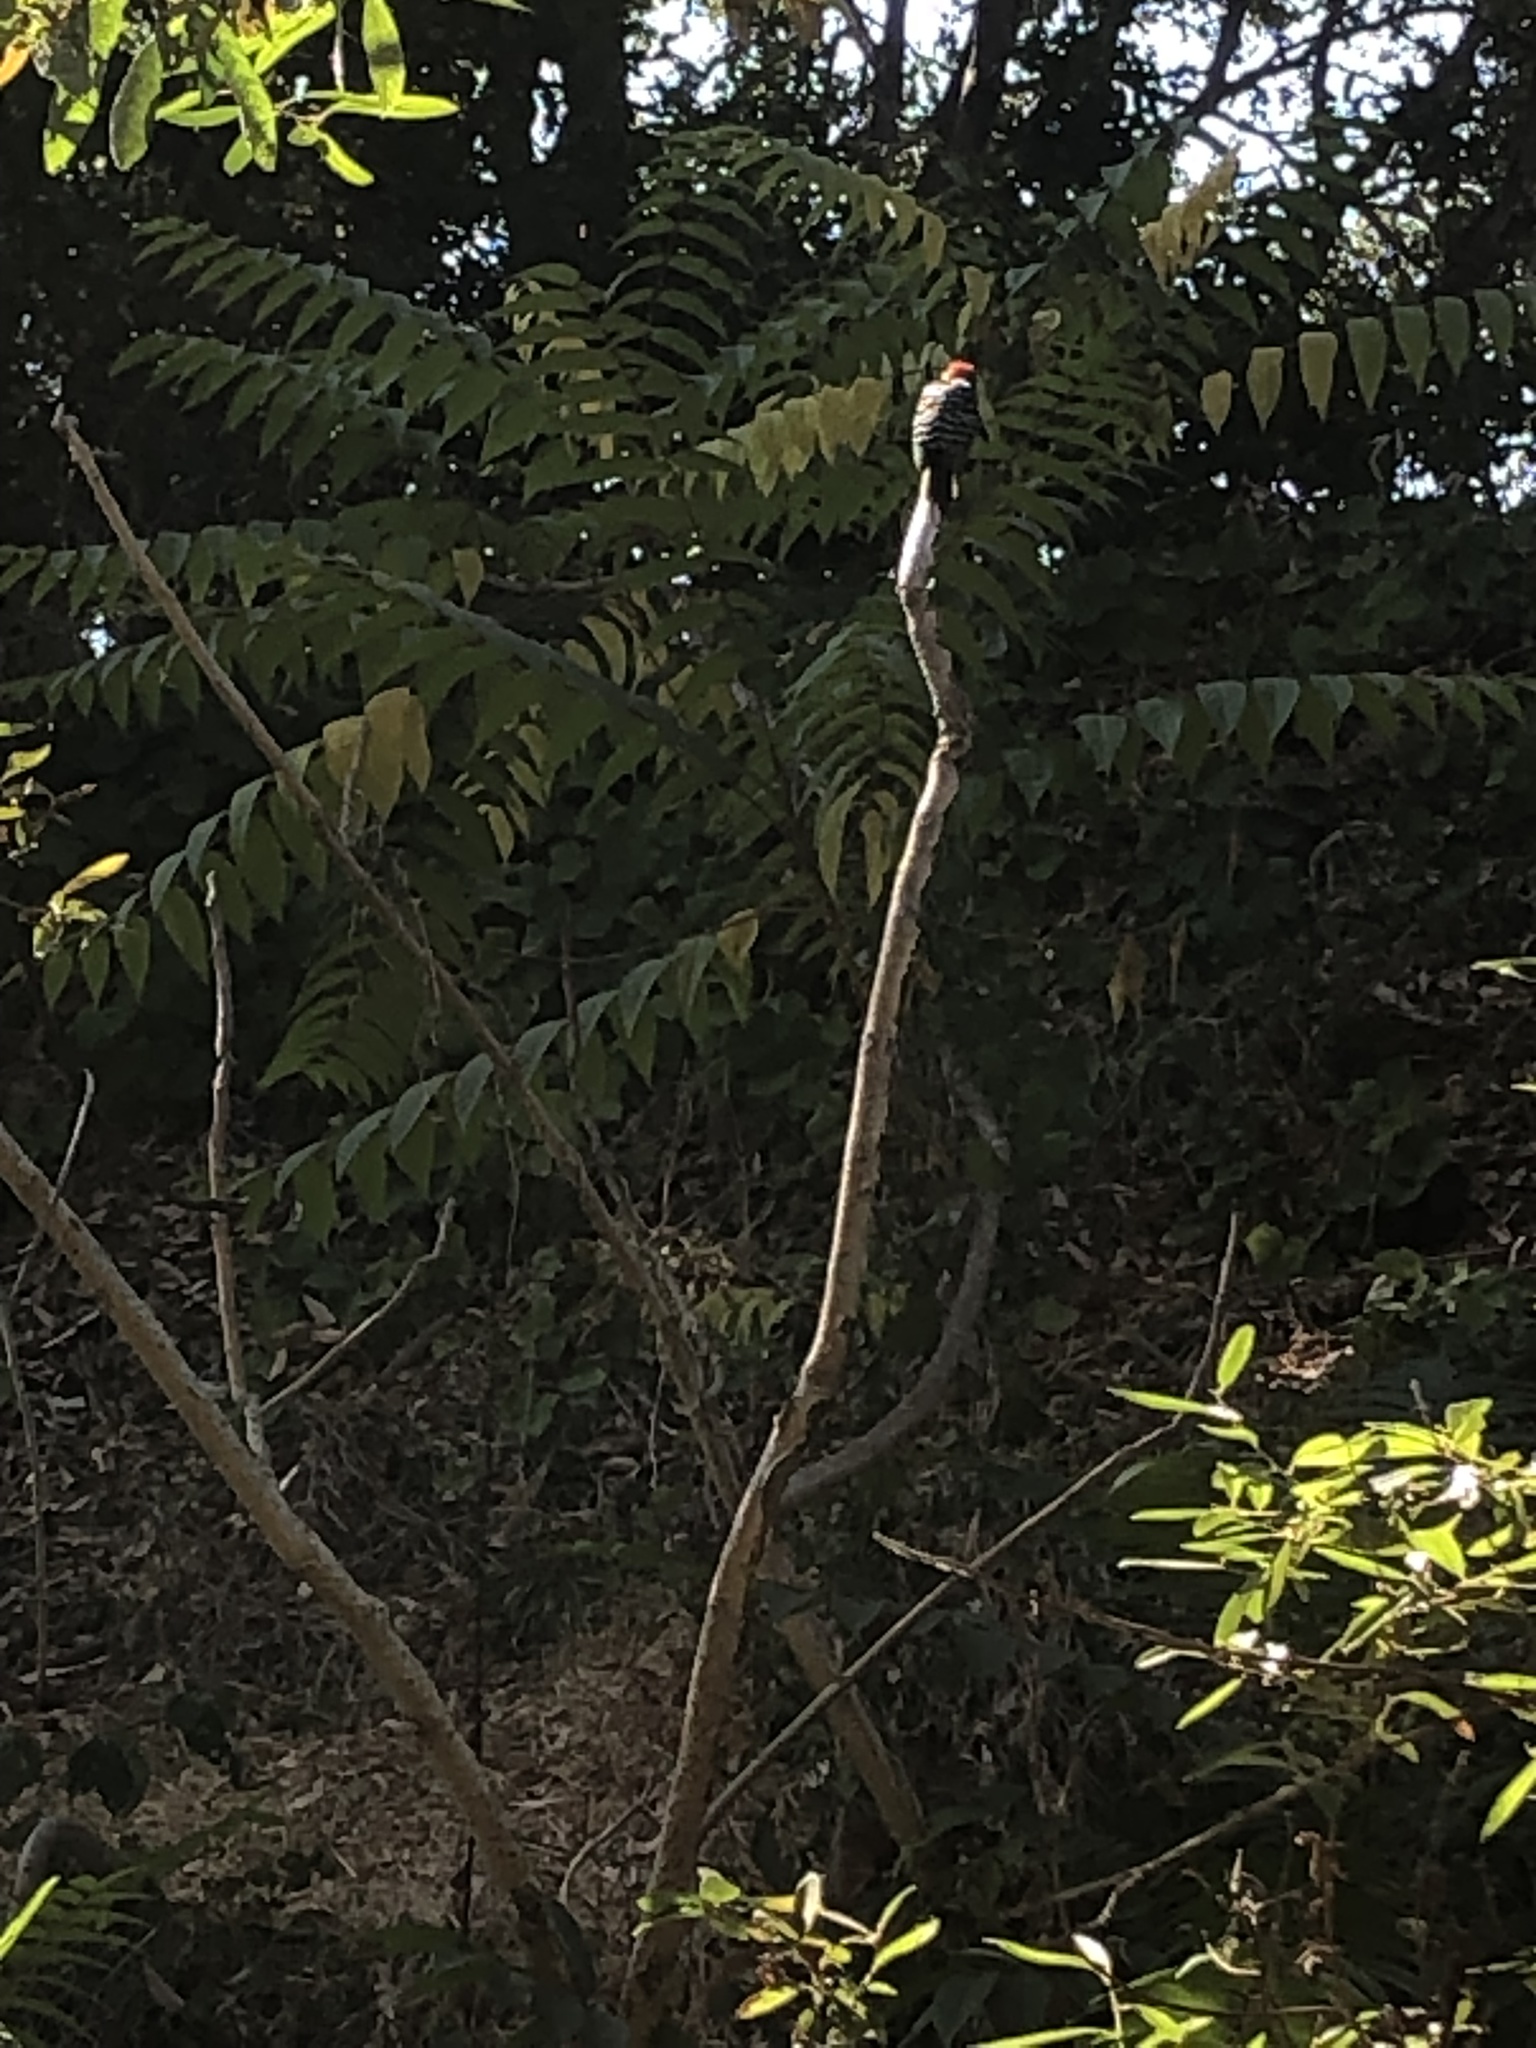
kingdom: Animalia
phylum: Chordata
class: Aves
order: Piciformes
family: Picidae
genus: Dryobates
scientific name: Dryobates nuttallii
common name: Nuttall's woodpecker
